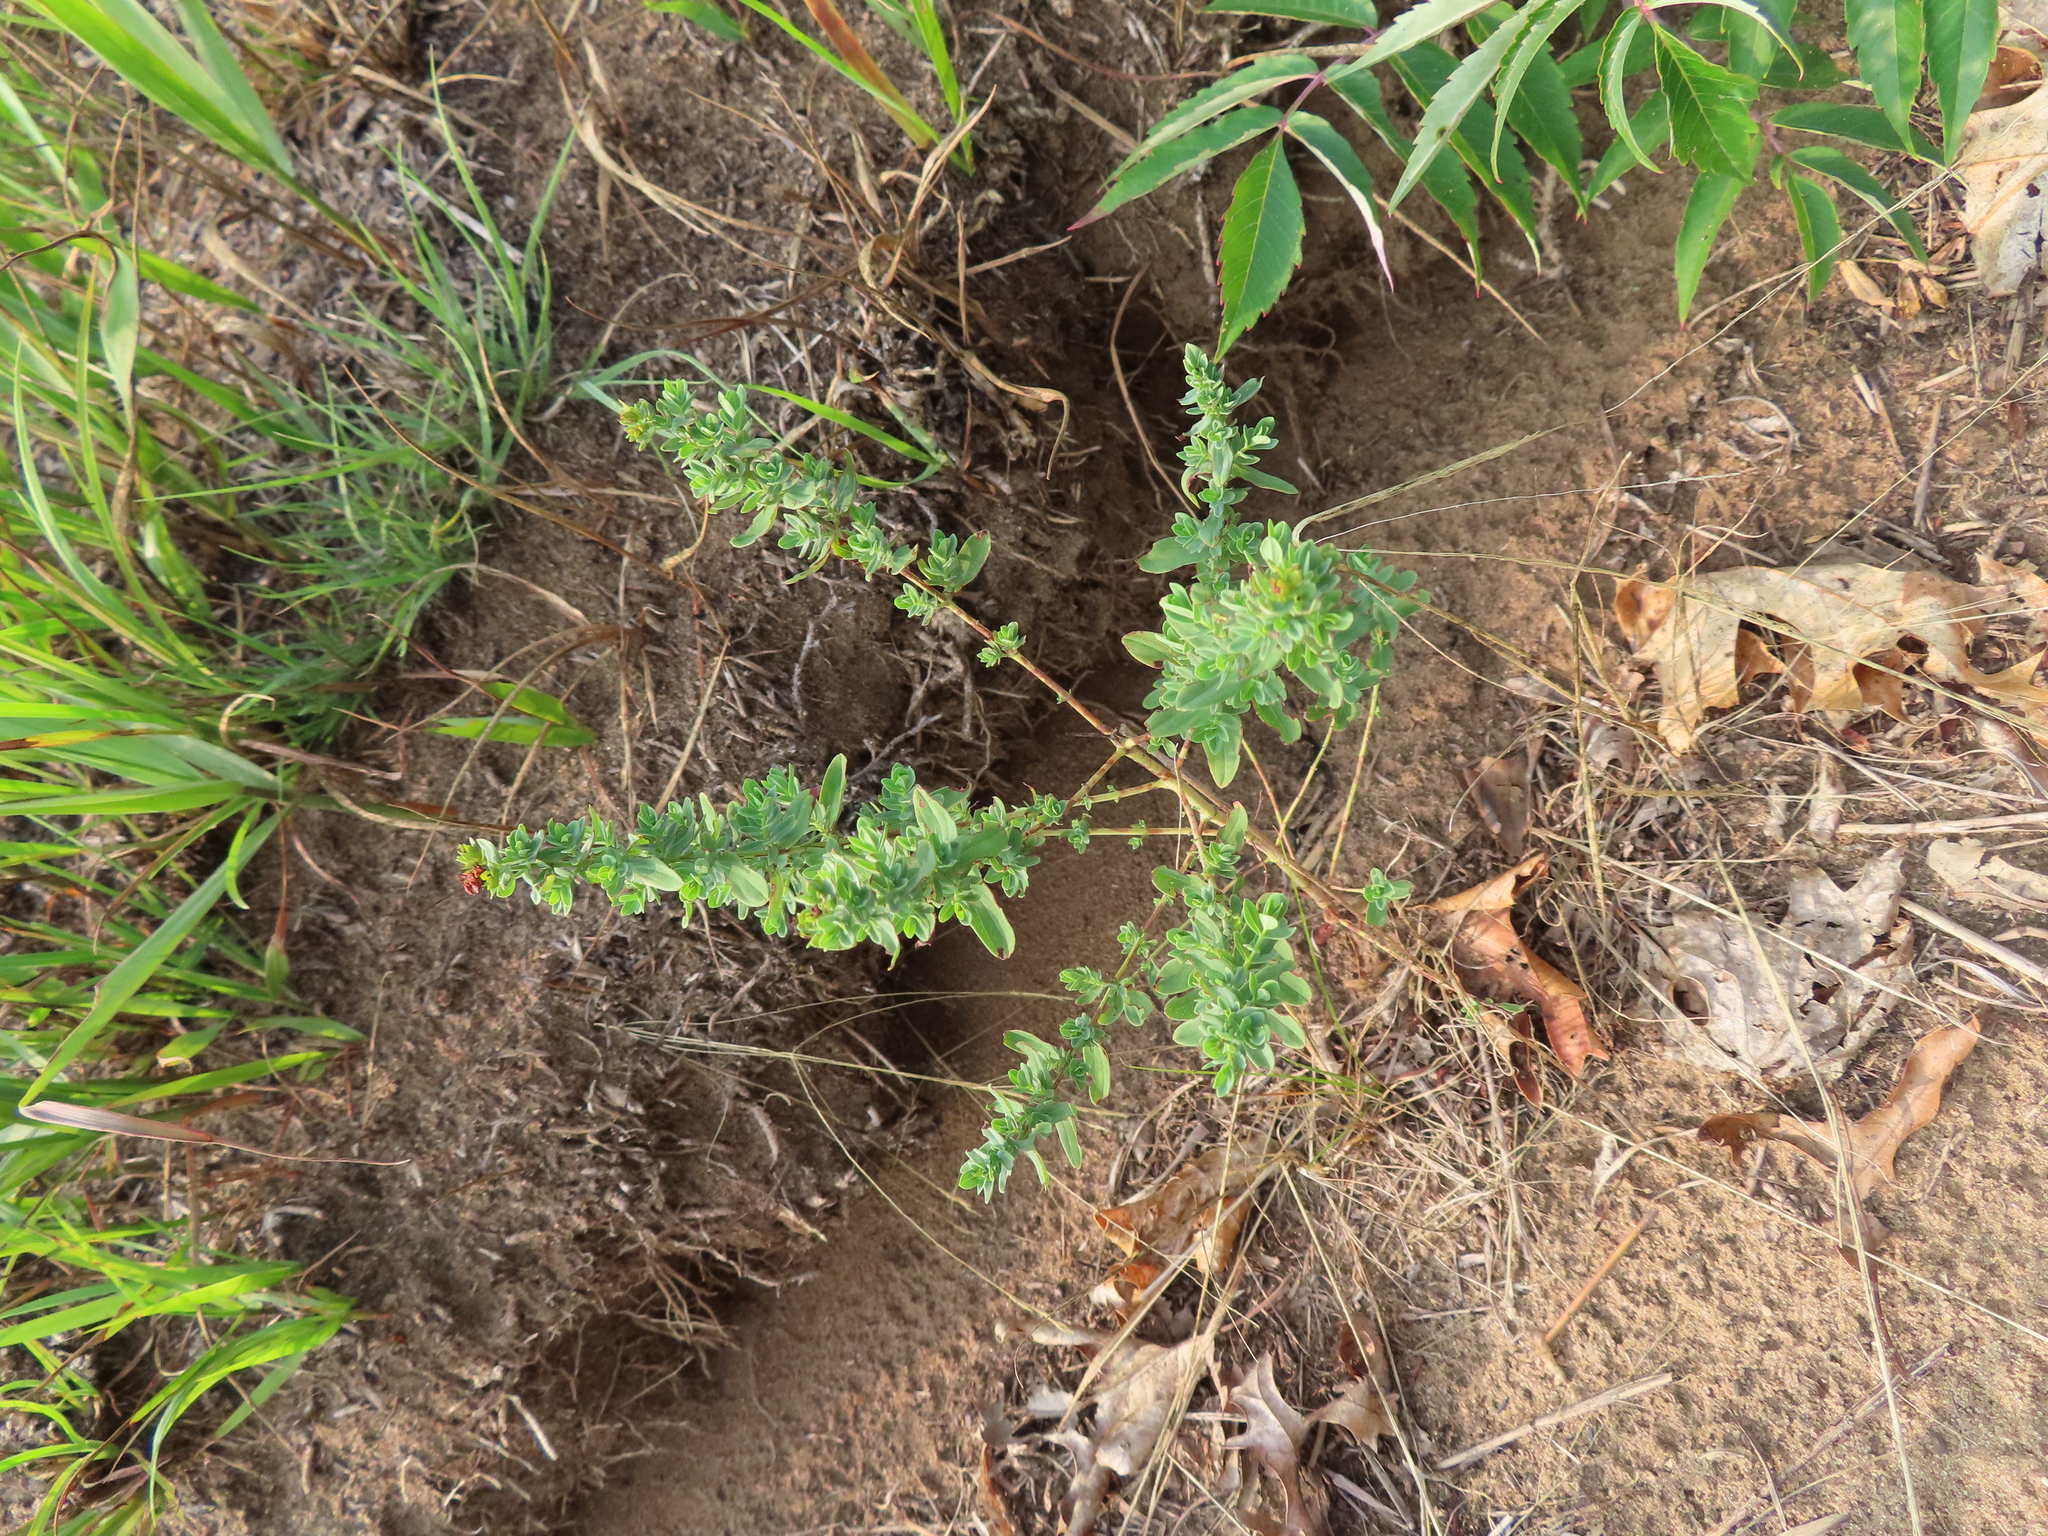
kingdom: Plantae
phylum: Tracheophyta
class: Magnoliopsida
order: Malpighiales
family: Hypericaceae
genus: Hypericum
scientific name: Hypericum perforatum
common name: Common st. johnswort
